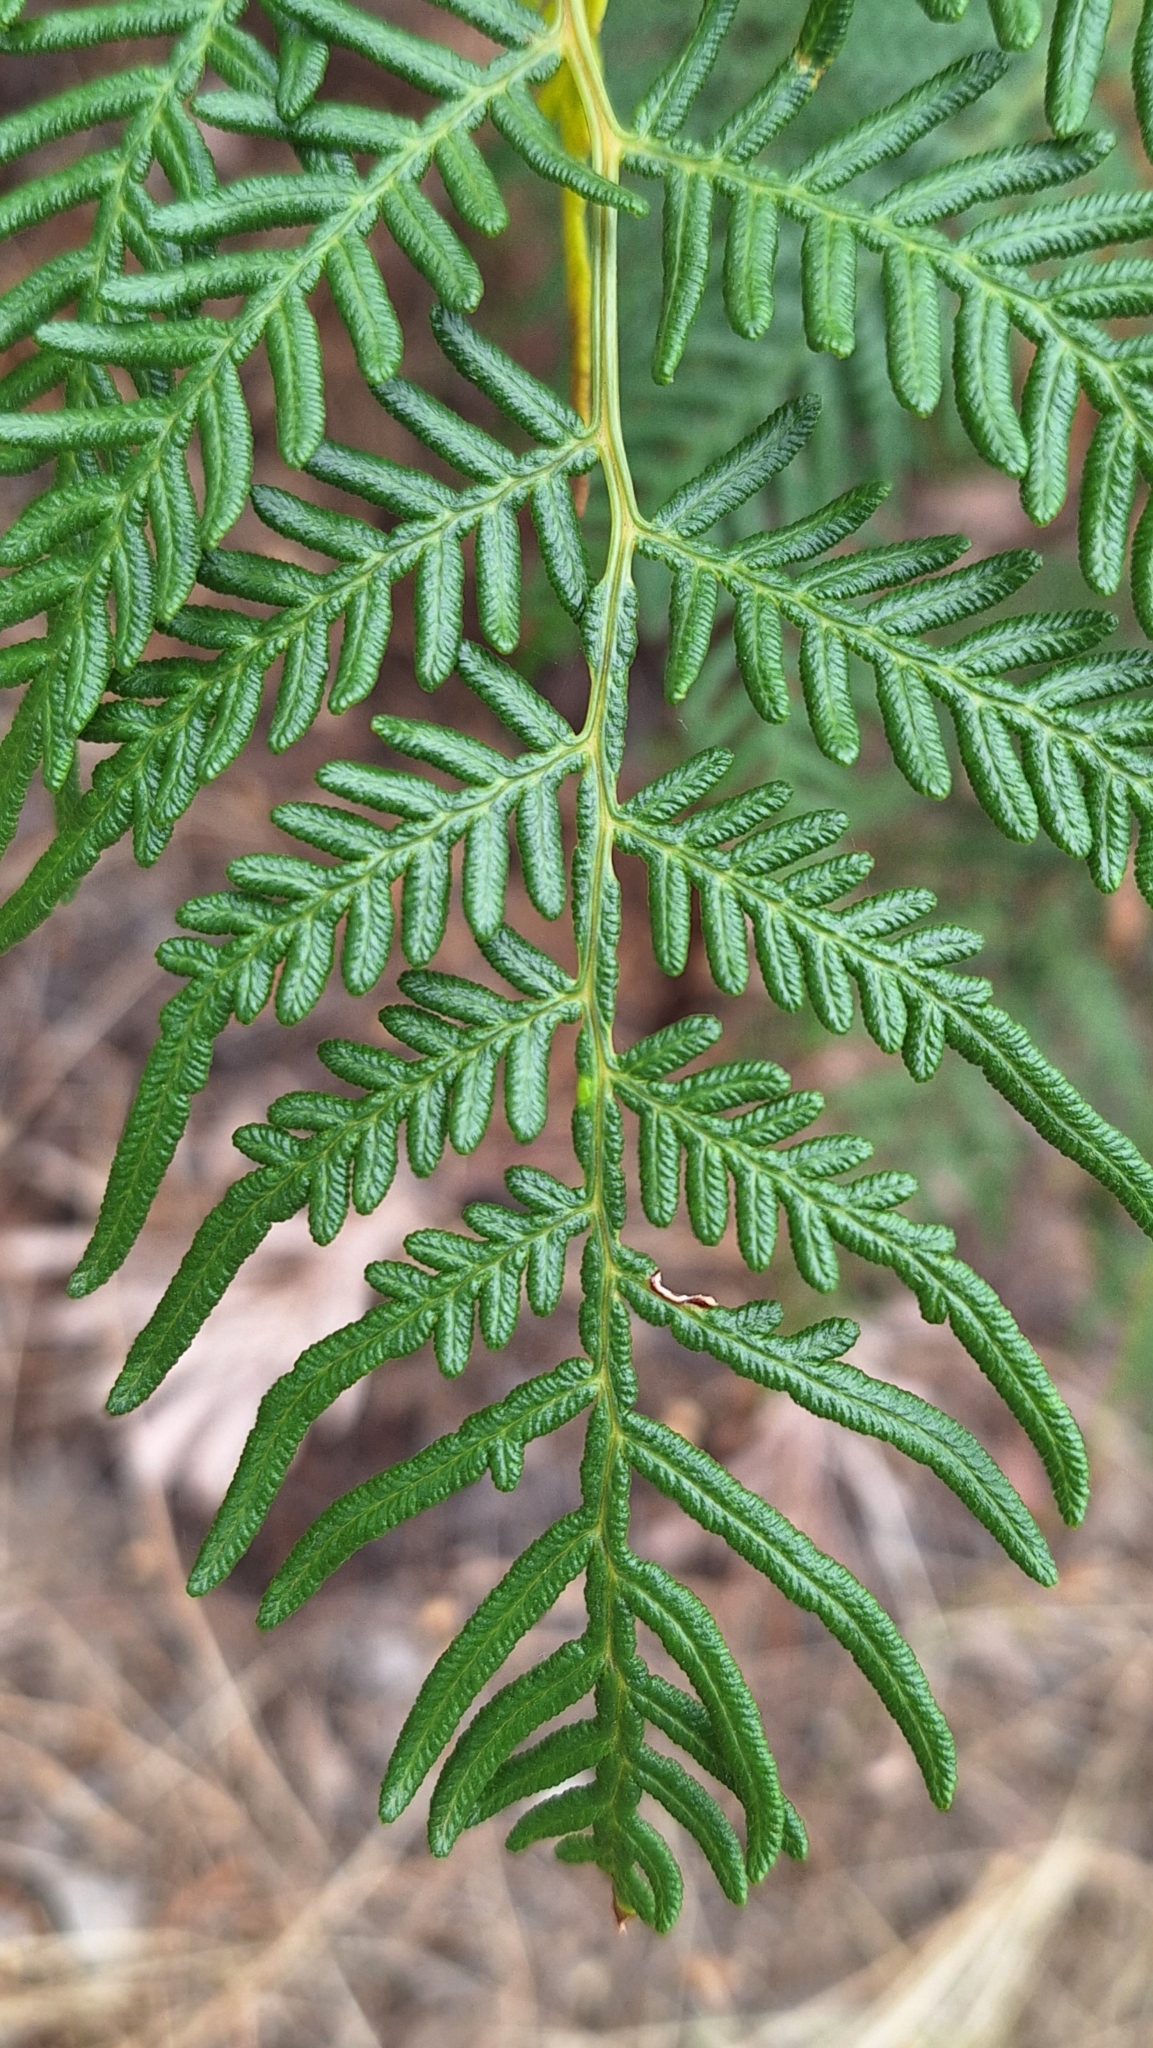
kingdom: Plantae
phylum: Tracheophyta
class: Polypodiopsida
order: Polypodiales
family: Dennstaedtiaceae
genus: Pteridium
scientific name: Pteridium esculentum
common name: Bracken fern
